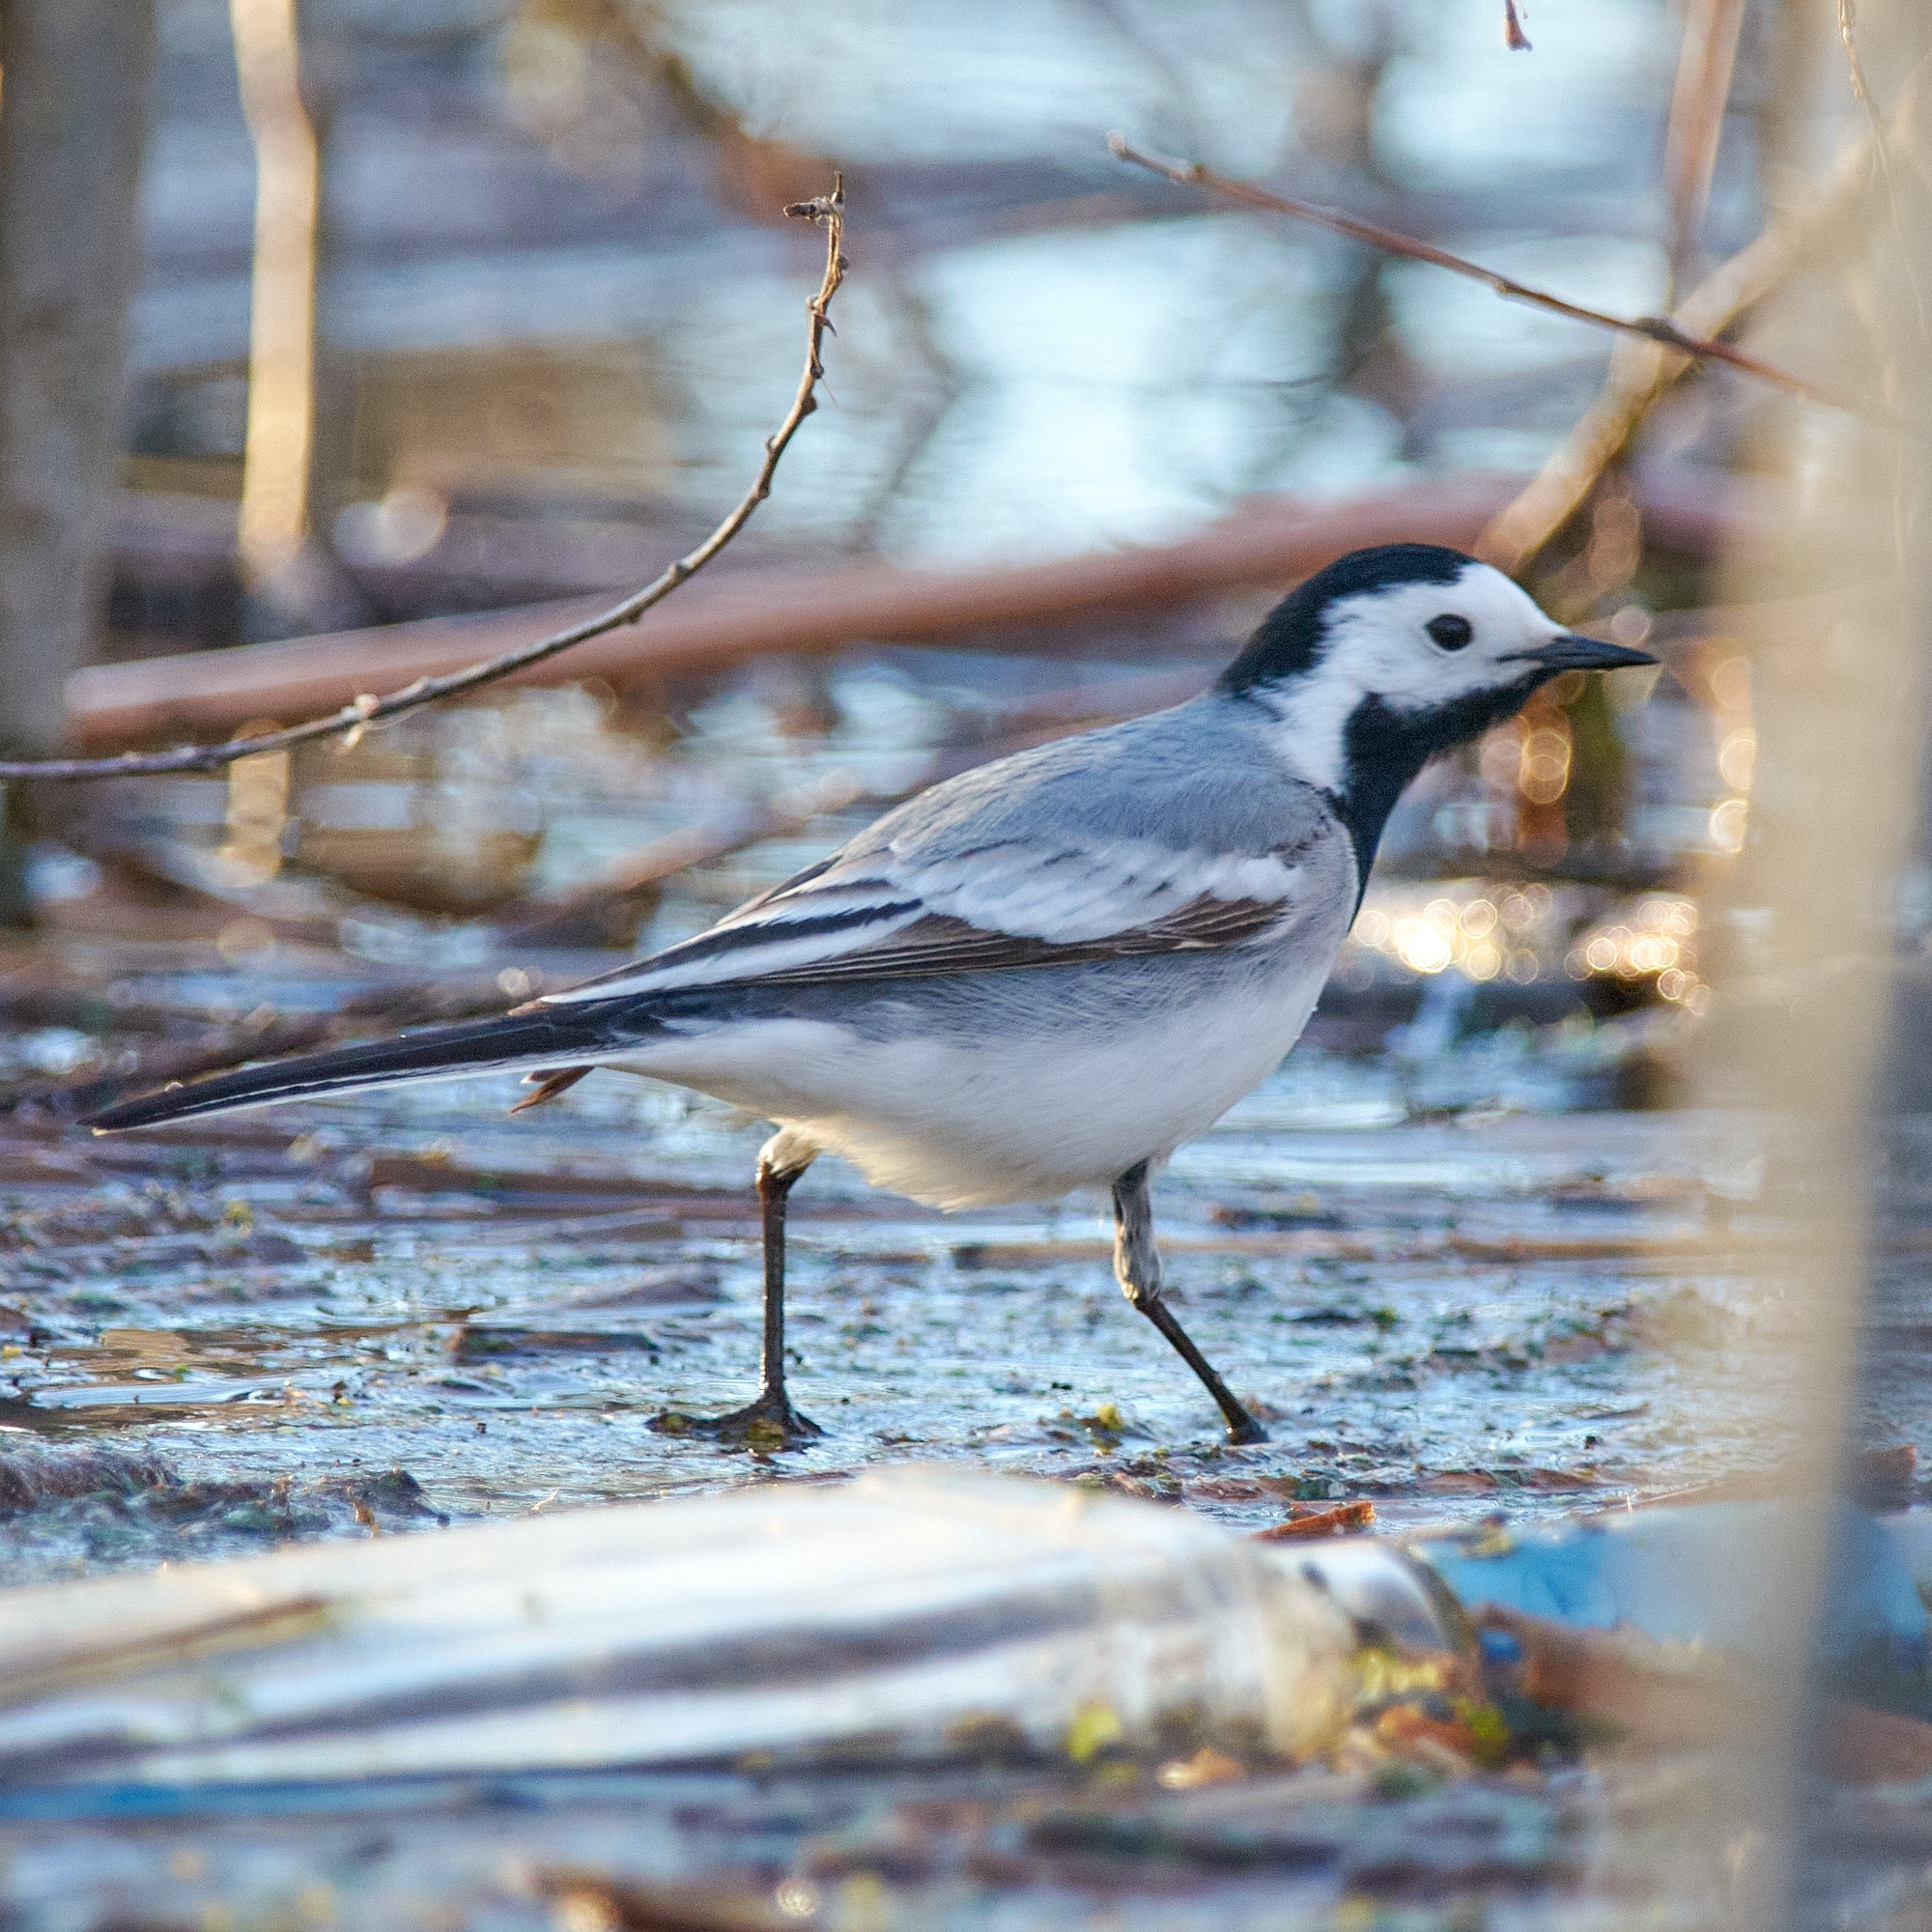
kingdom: Animalia
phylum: Chordata
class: Aves
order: Passeriformes
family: Motacillidae
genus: Motacilla
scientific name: Motacilla alba
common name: White wagtail
